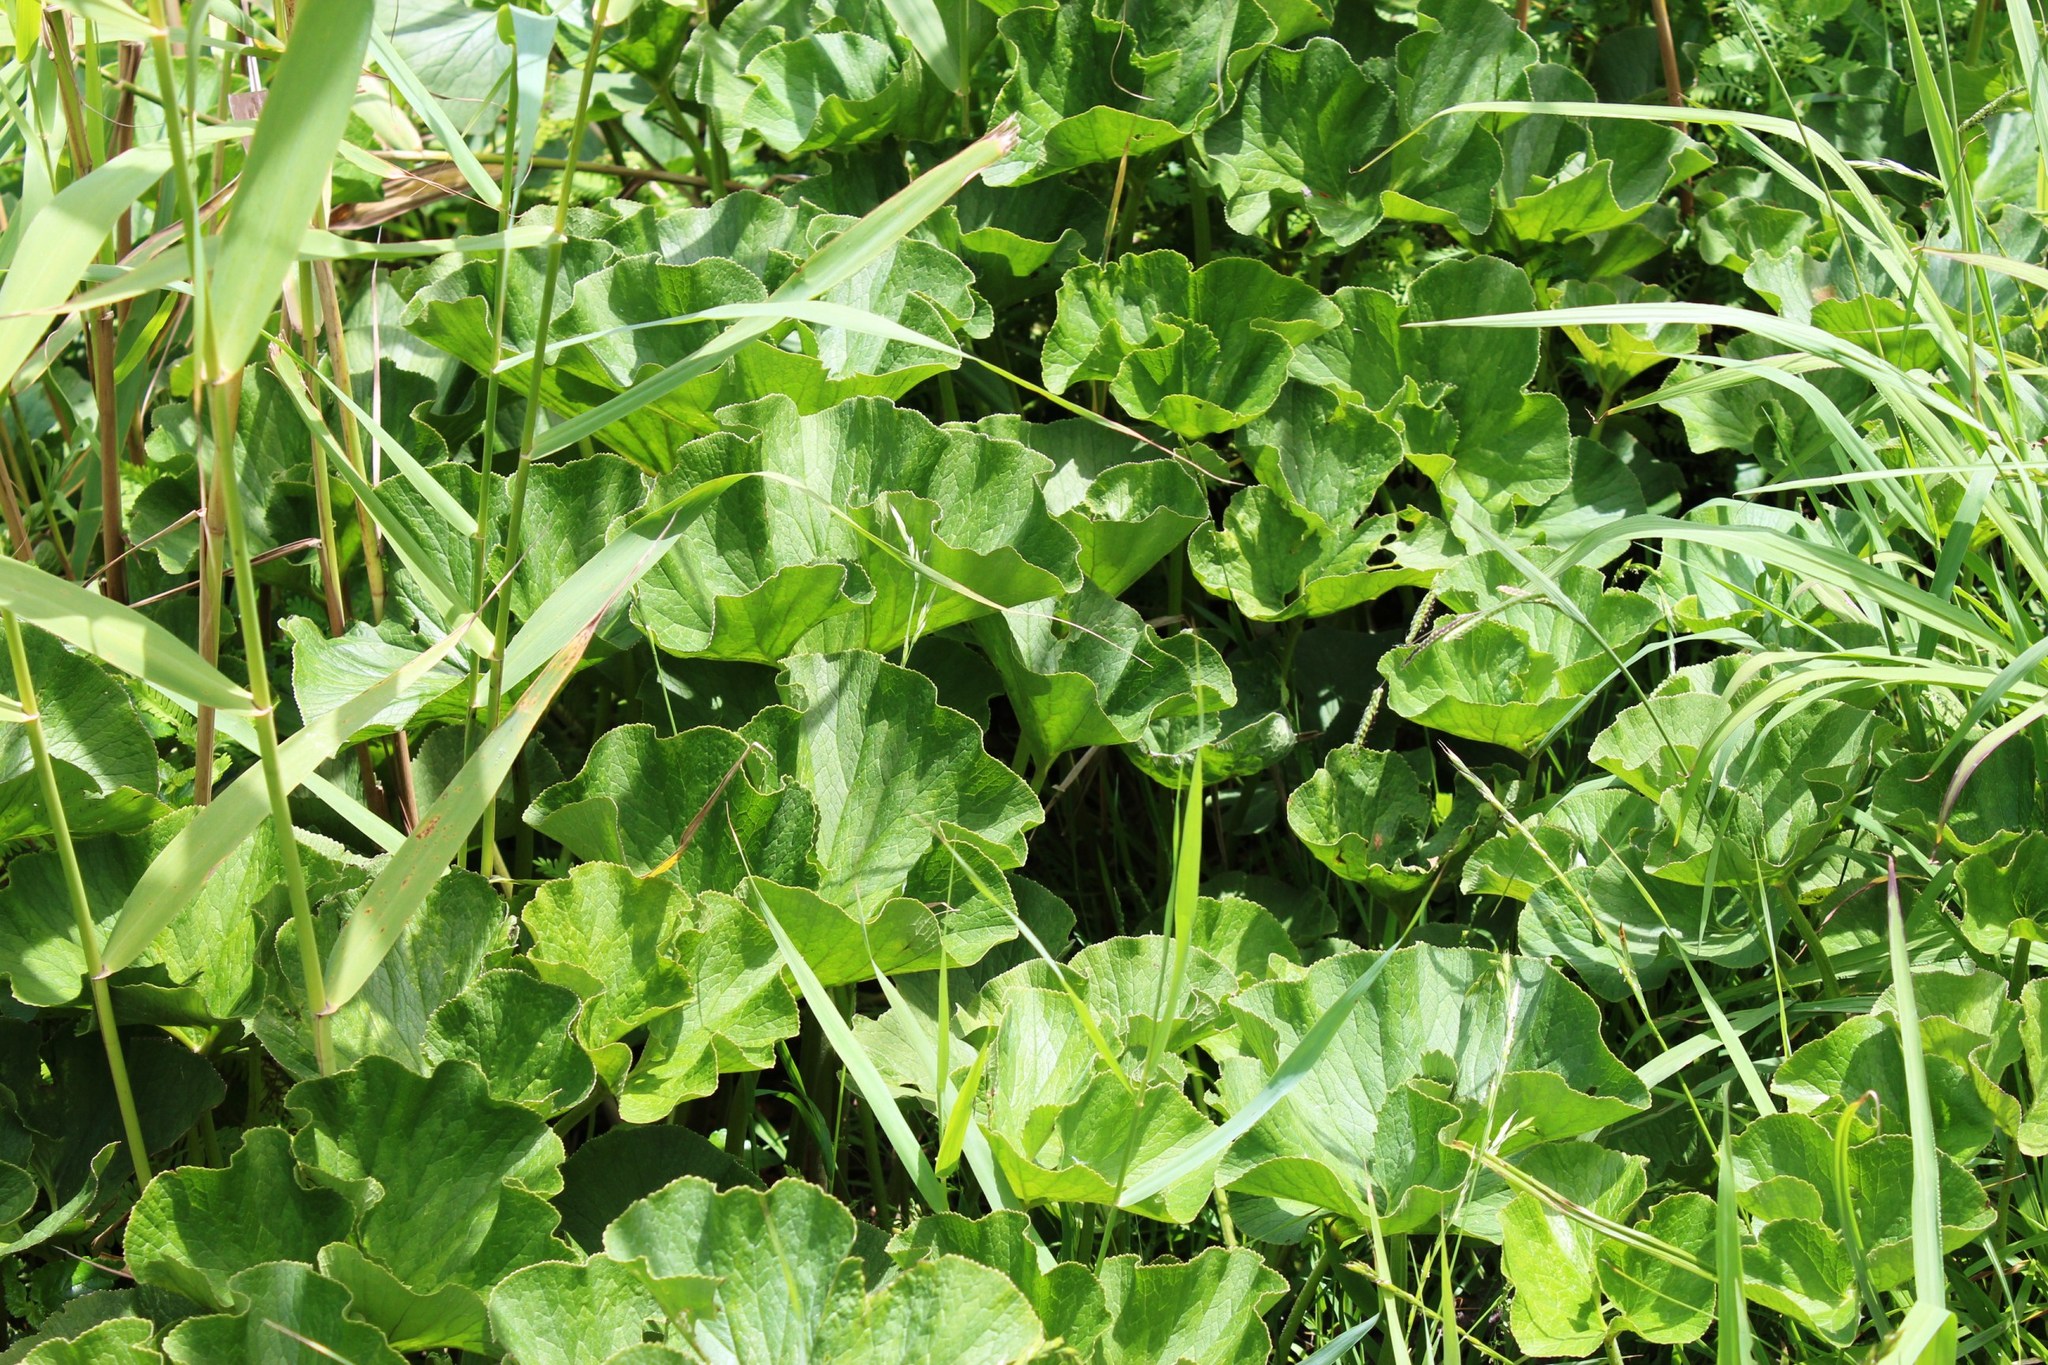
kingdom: Plantae
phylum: Tracheophyta
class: Magnoliopsida
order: Gunnerales
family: Gunneraceae
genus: Gunnera
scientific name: Gunnera perpensa
